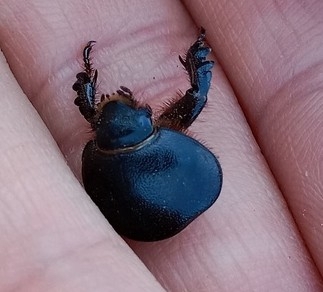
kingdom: Animalia
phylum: Arthropoda
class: Insecta
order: Coleoptera
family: Scarabaeidae
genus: Pentodon
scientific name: Pentodon idiota
